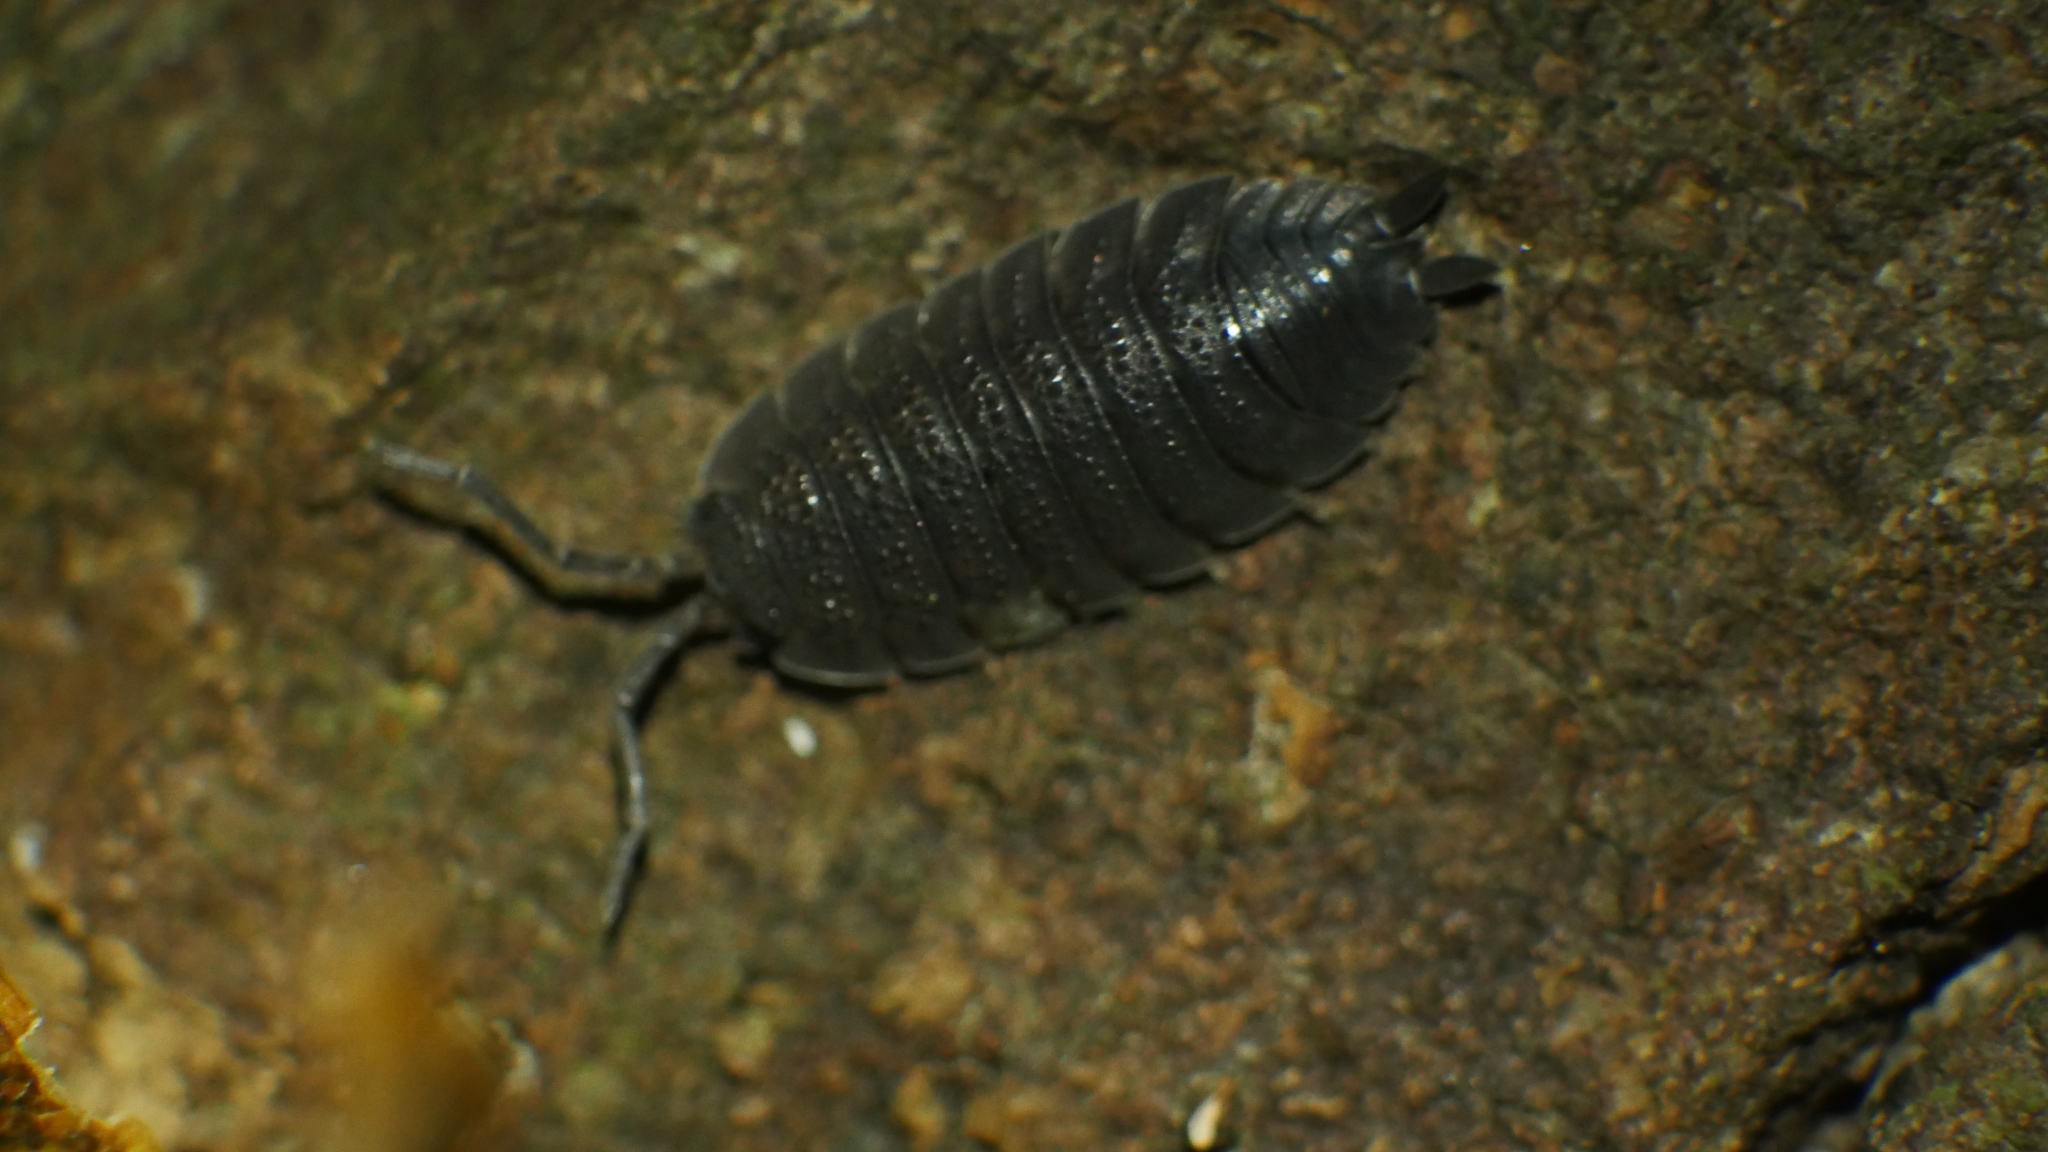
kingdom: Animalia
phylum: Arthropoda
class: Malacostraca
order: Isopoda
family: Porcellionidae
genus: Porcellio
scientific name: Porcellio scaber
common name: Common rough woodlouse
